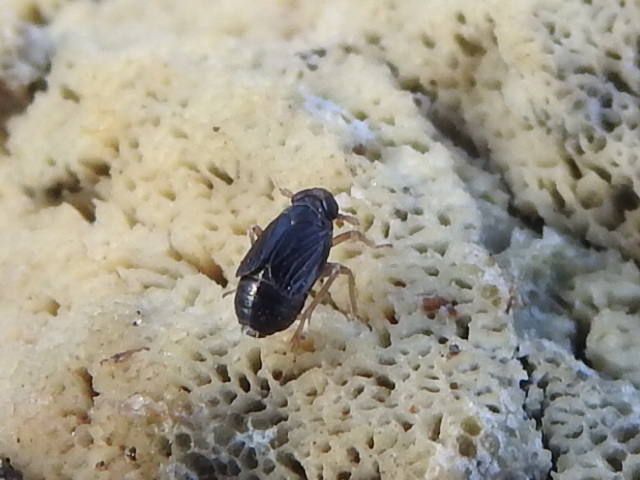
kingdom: Animalia
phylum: Arthropoda
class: Insecta
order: Hemiptera
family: Delphacidae
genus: Nothodelphax
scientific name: Nothodelphax lineatipes
